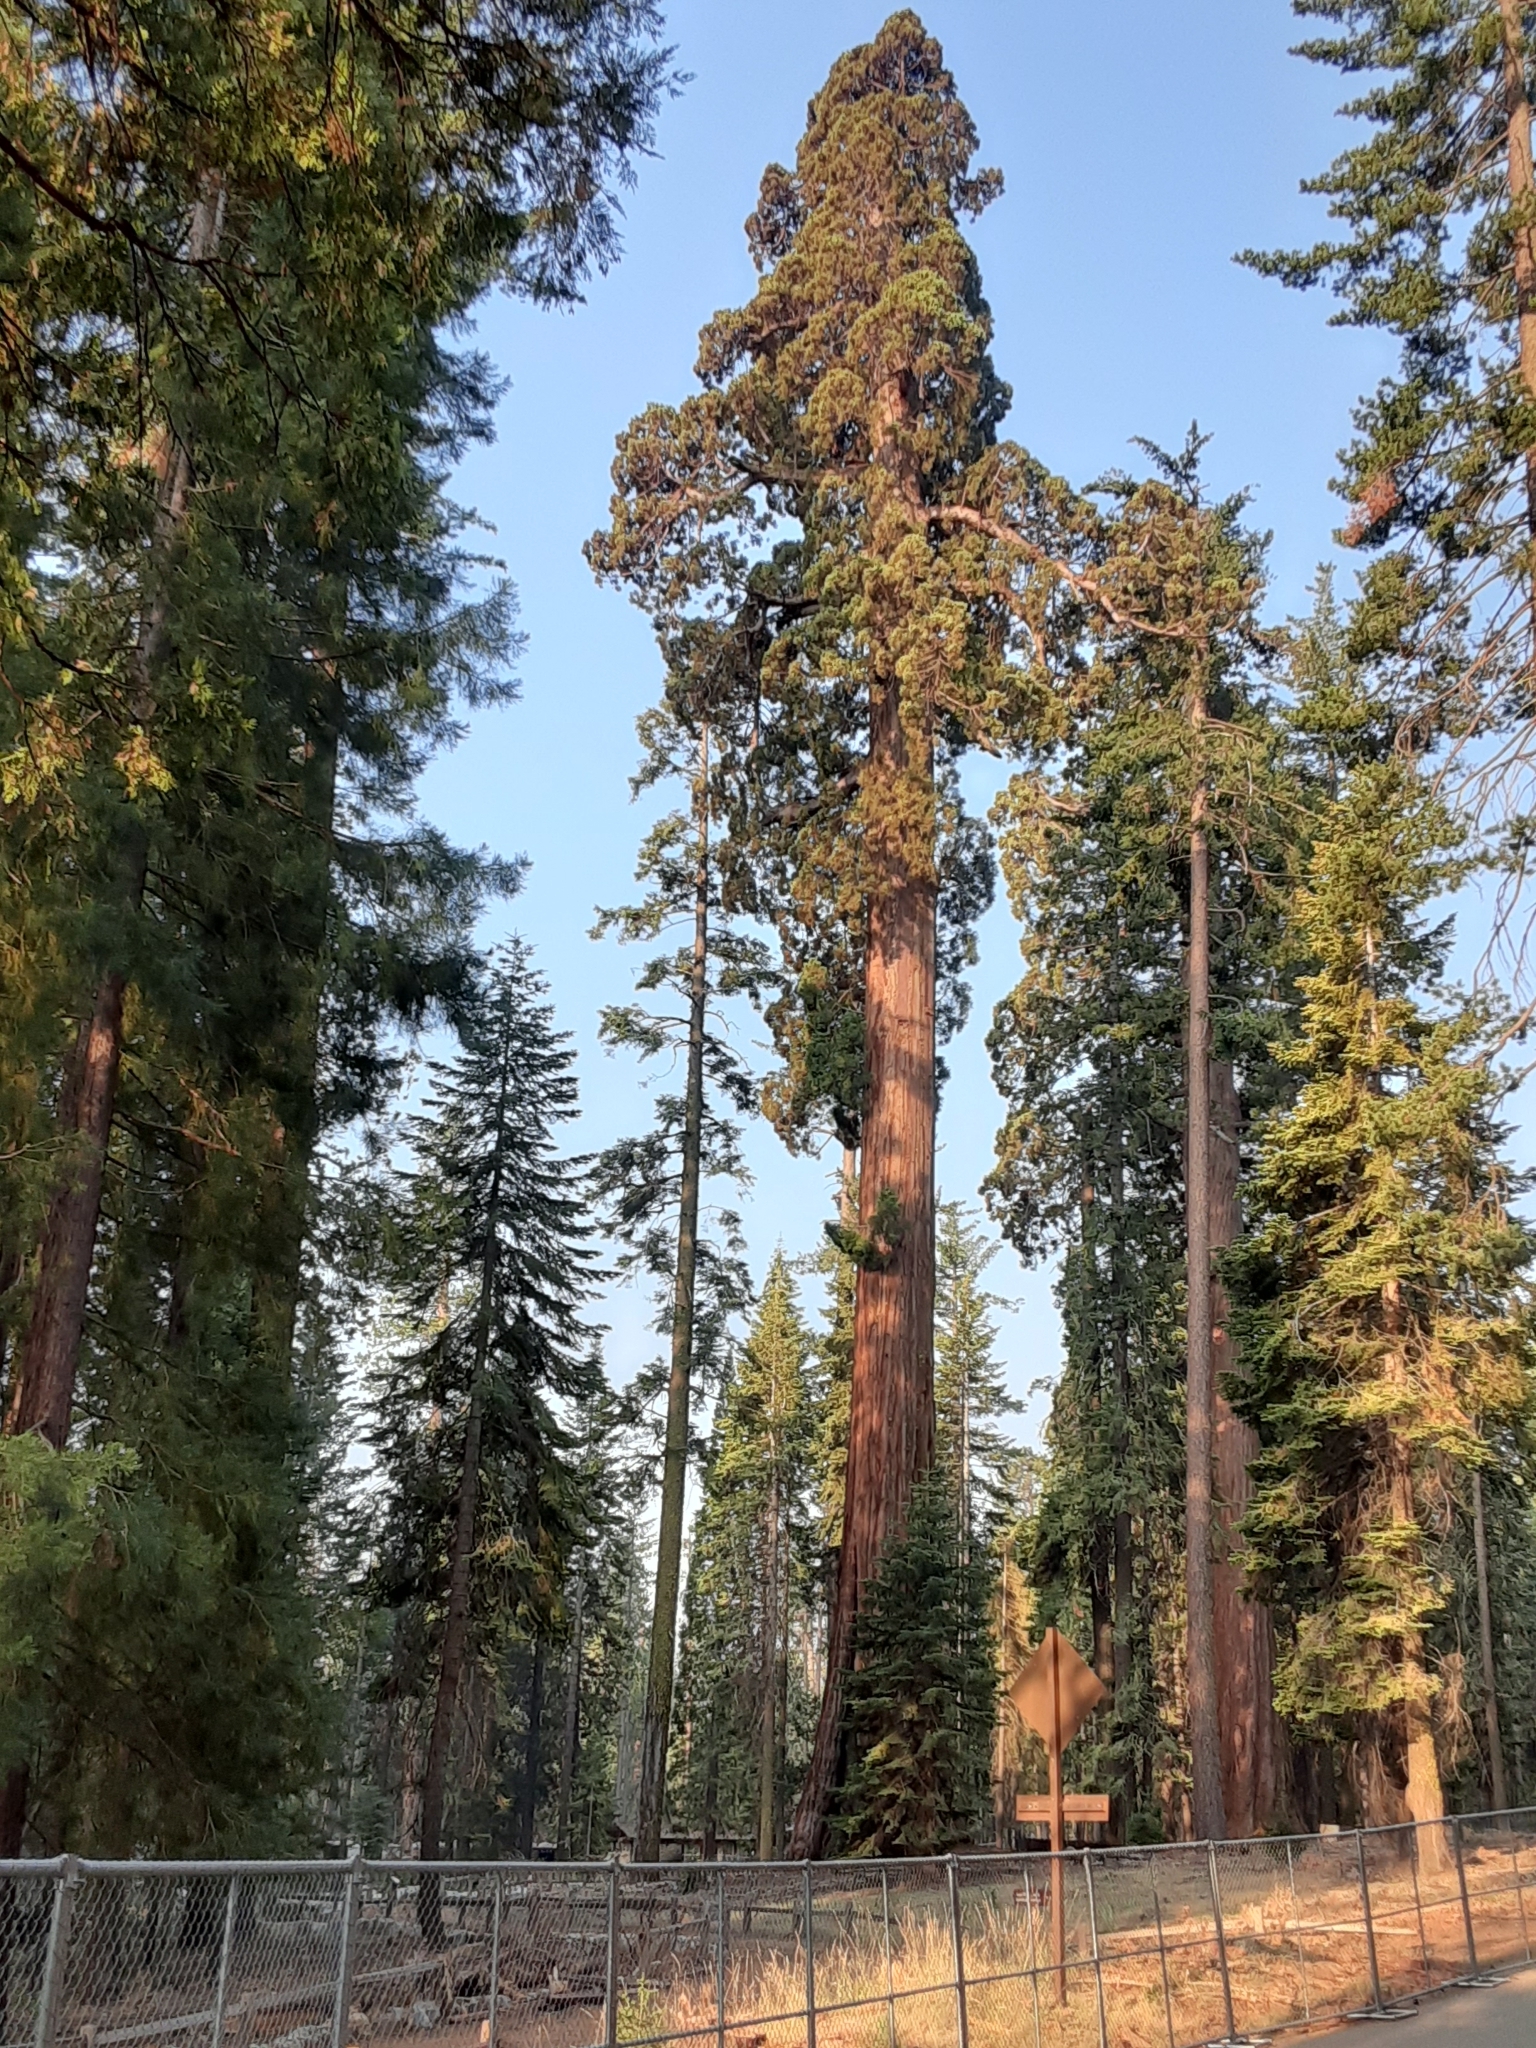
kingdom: Plantae
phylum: Tracheophyta
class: Pinopsida
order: Pinales
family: Cupressaceae
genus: Sequoiadendron
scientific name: Sequoiadendron giganteum
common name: Wellingtonia
